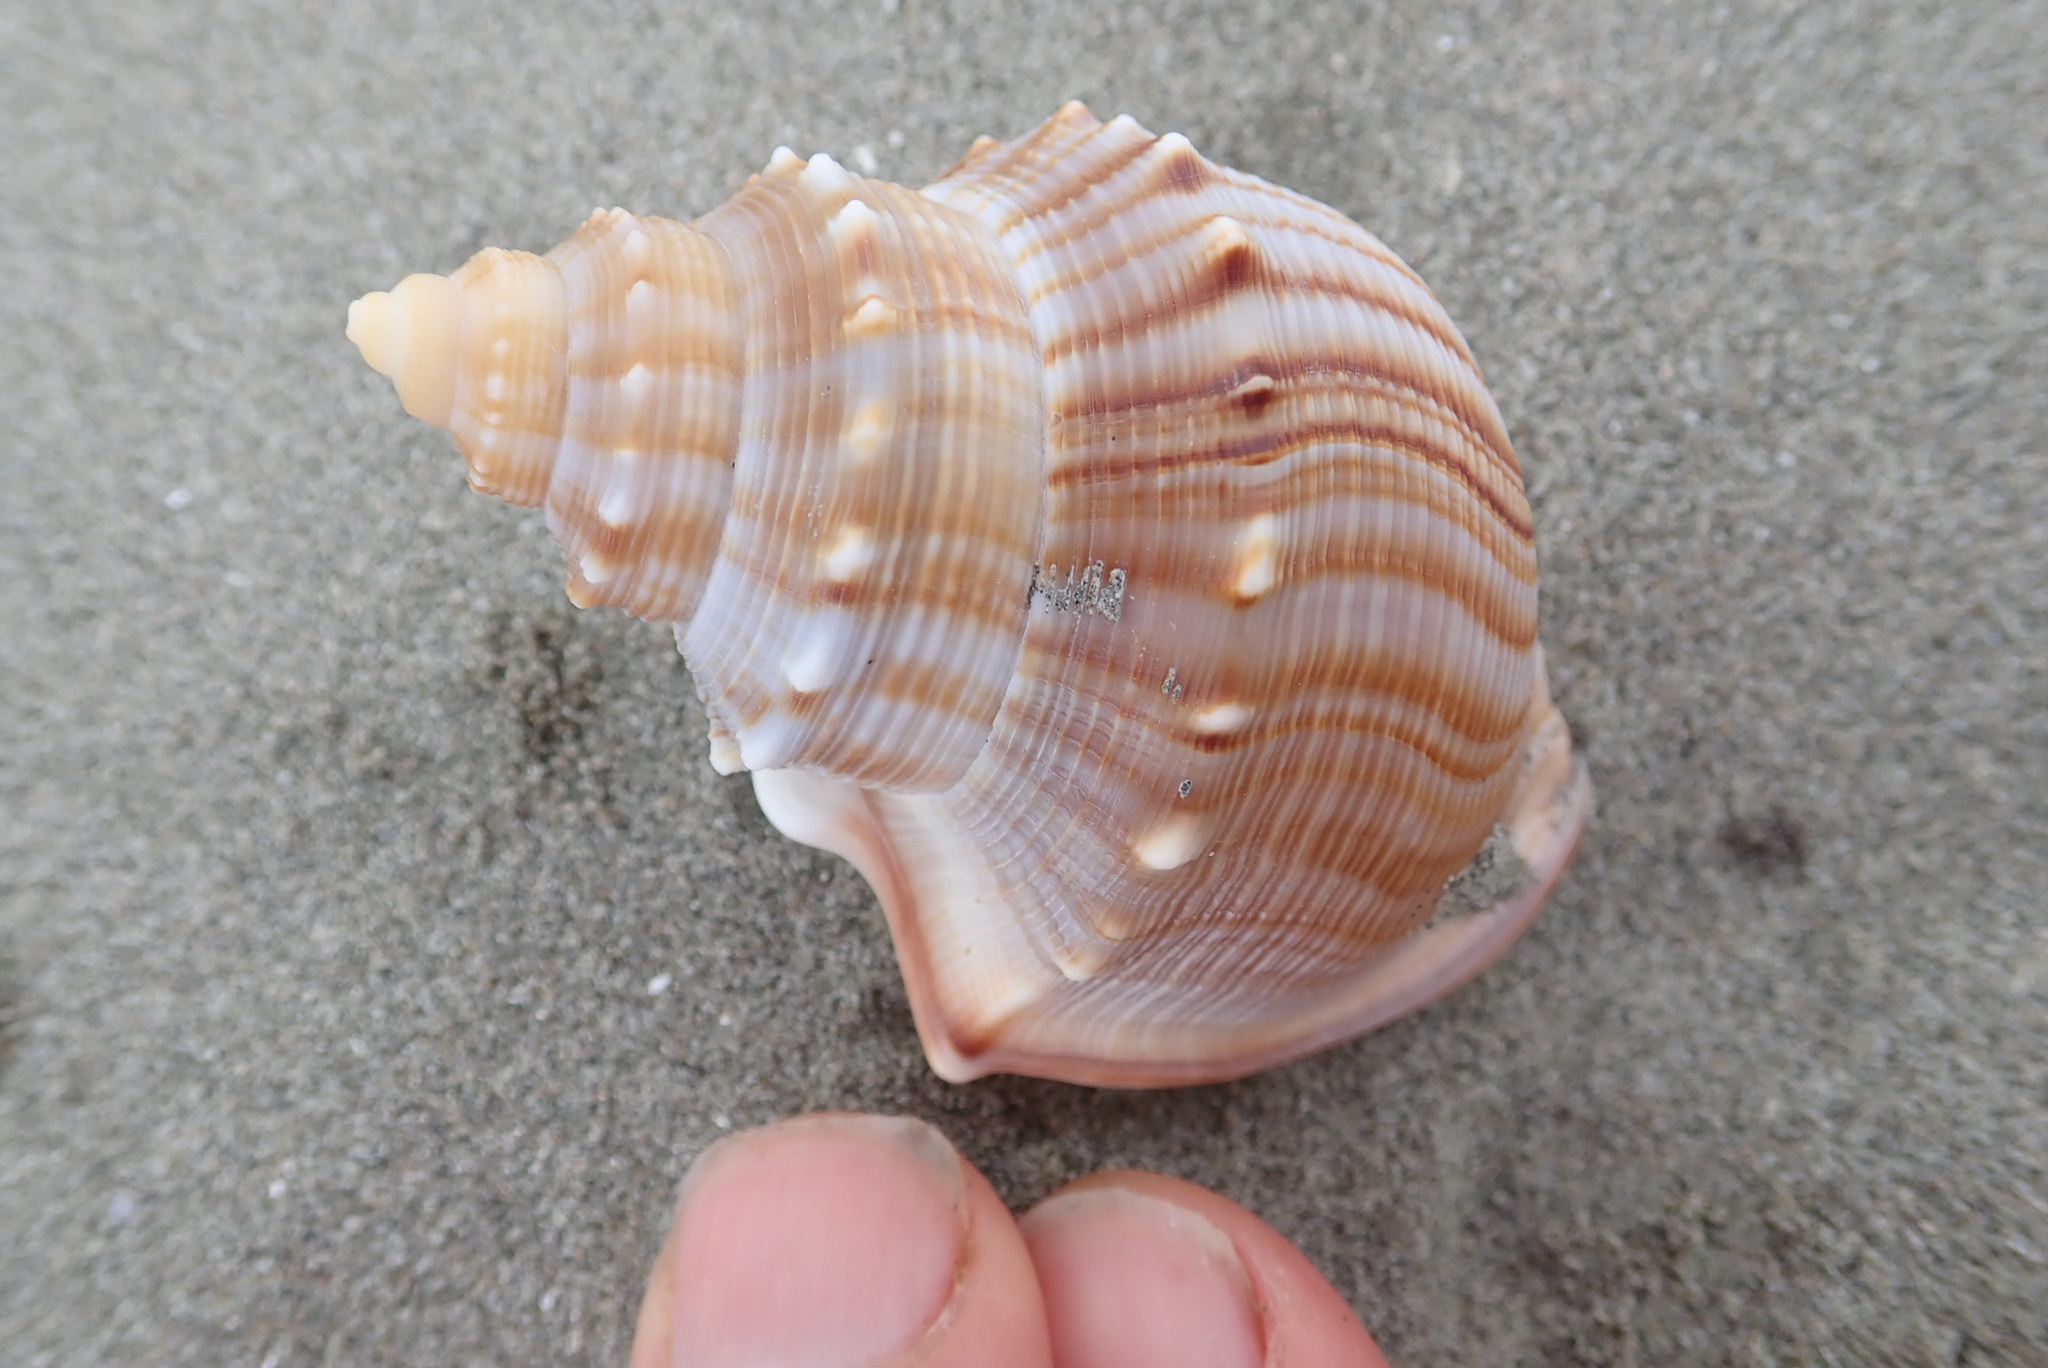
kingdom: Animalia
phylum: Mollusca
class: Gastropoda
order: Littorinimorpha
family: Struthiolariidae
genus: Struthiolaria
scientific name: Struthiolaria papulosa
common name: Large ostrich foot
